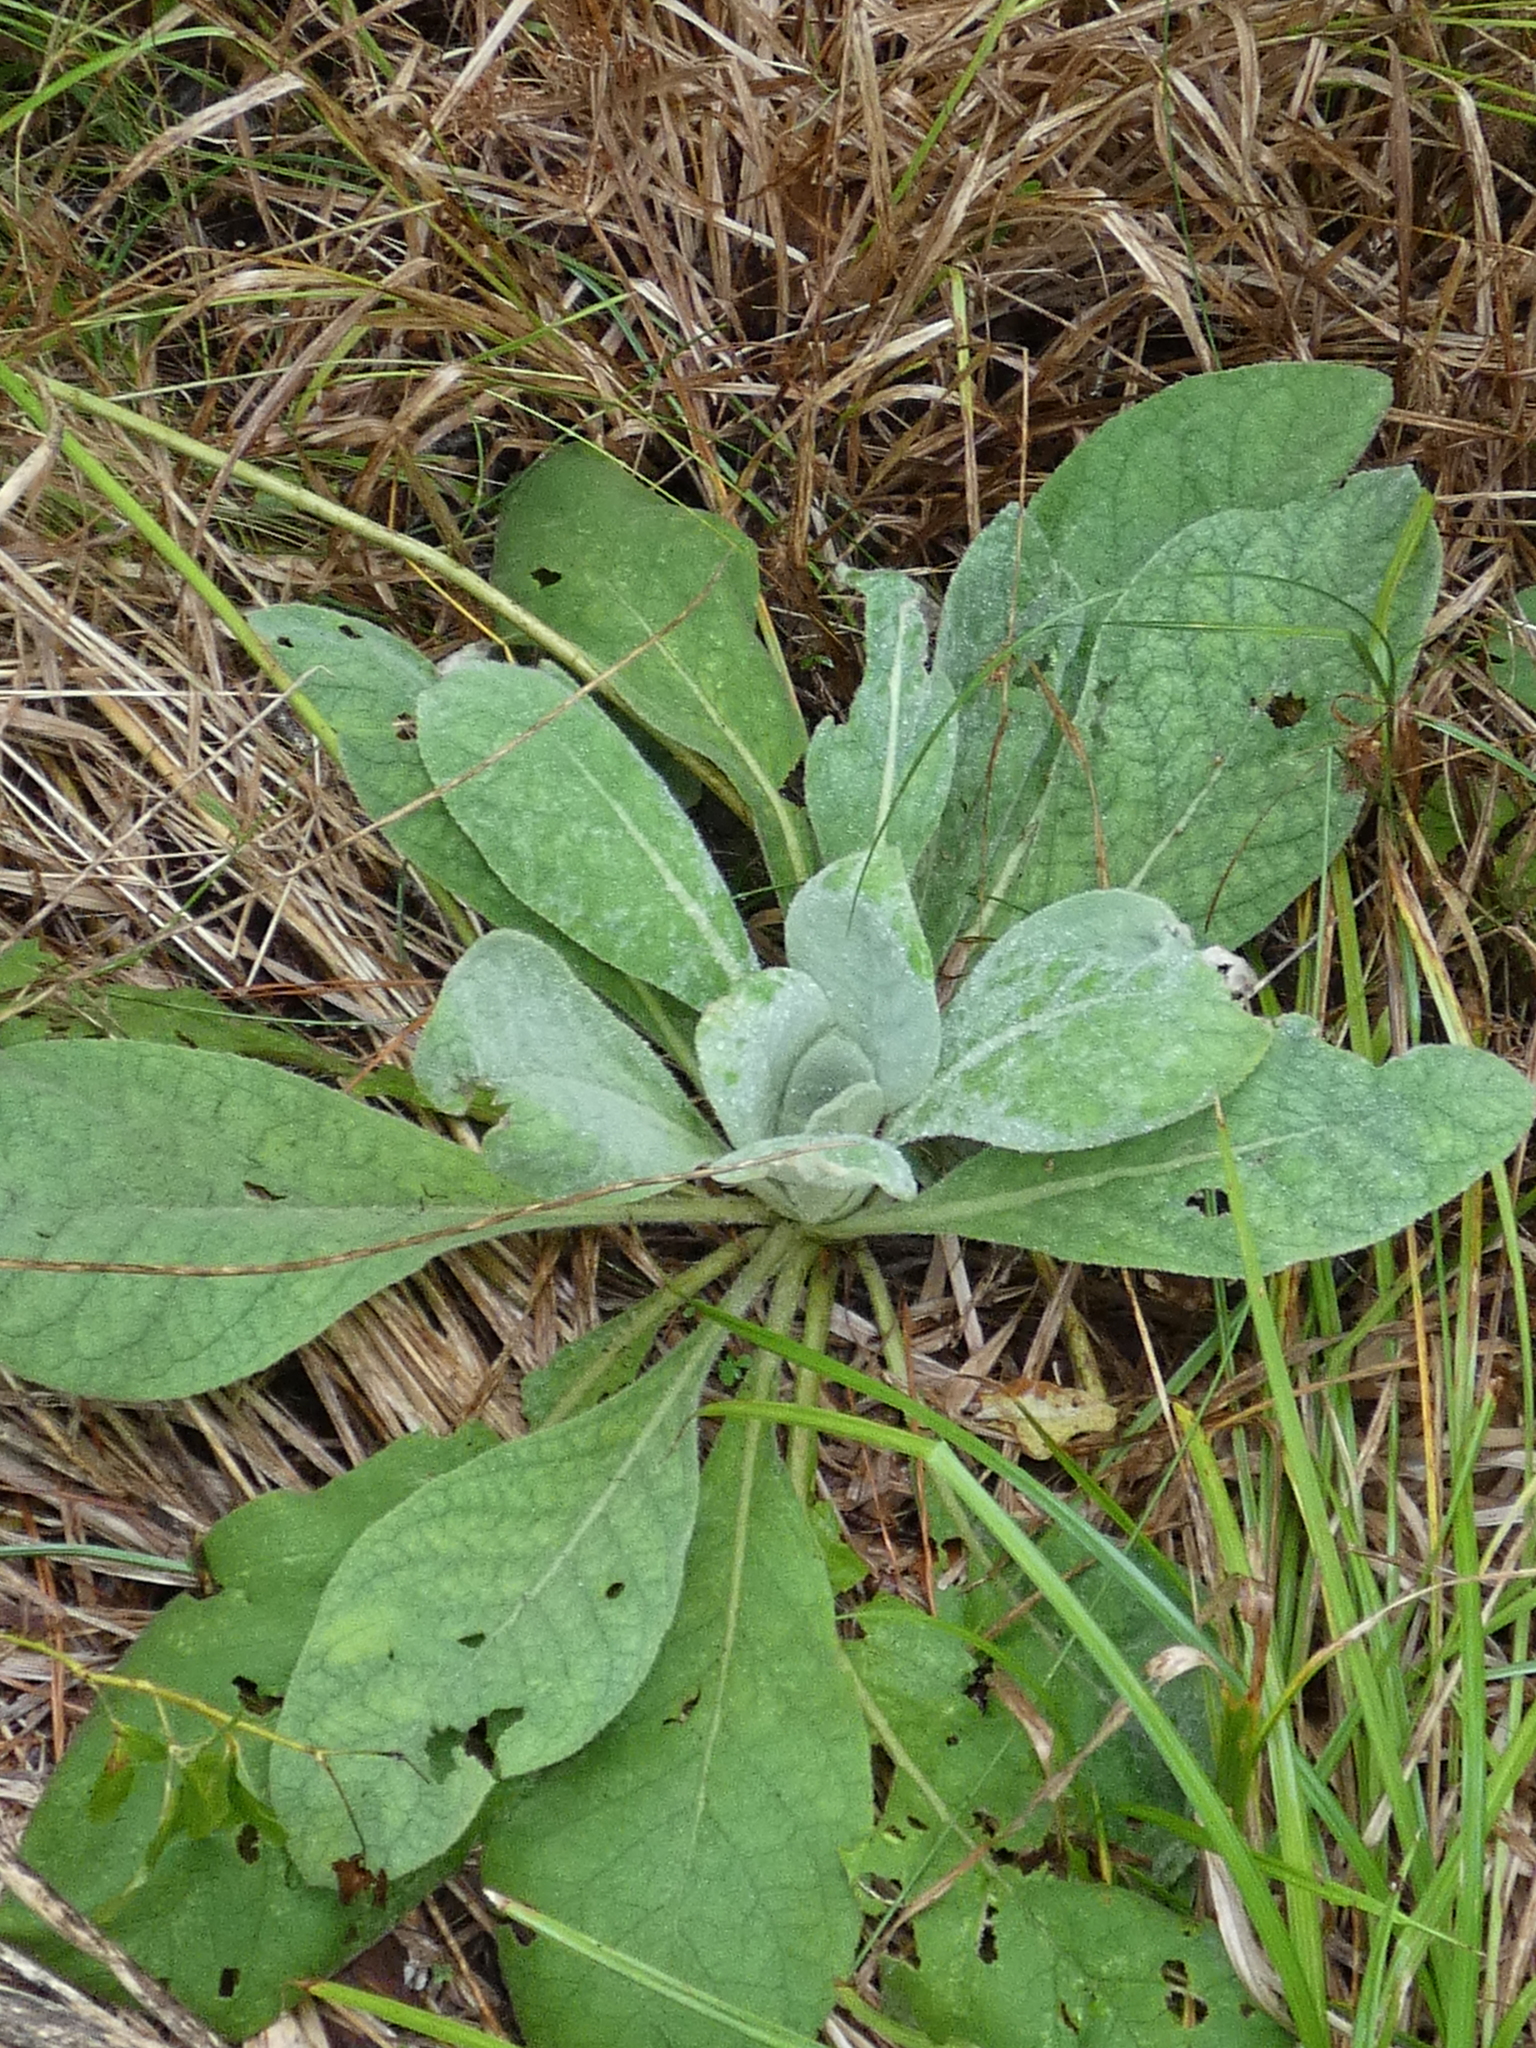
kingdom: Plantae
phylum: Tracheophyta
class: Magnoliopsida
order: Lamiales
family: Scrophulariaceae
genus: Verbascum
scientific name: Verbascum thapsus
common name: Common mullein
